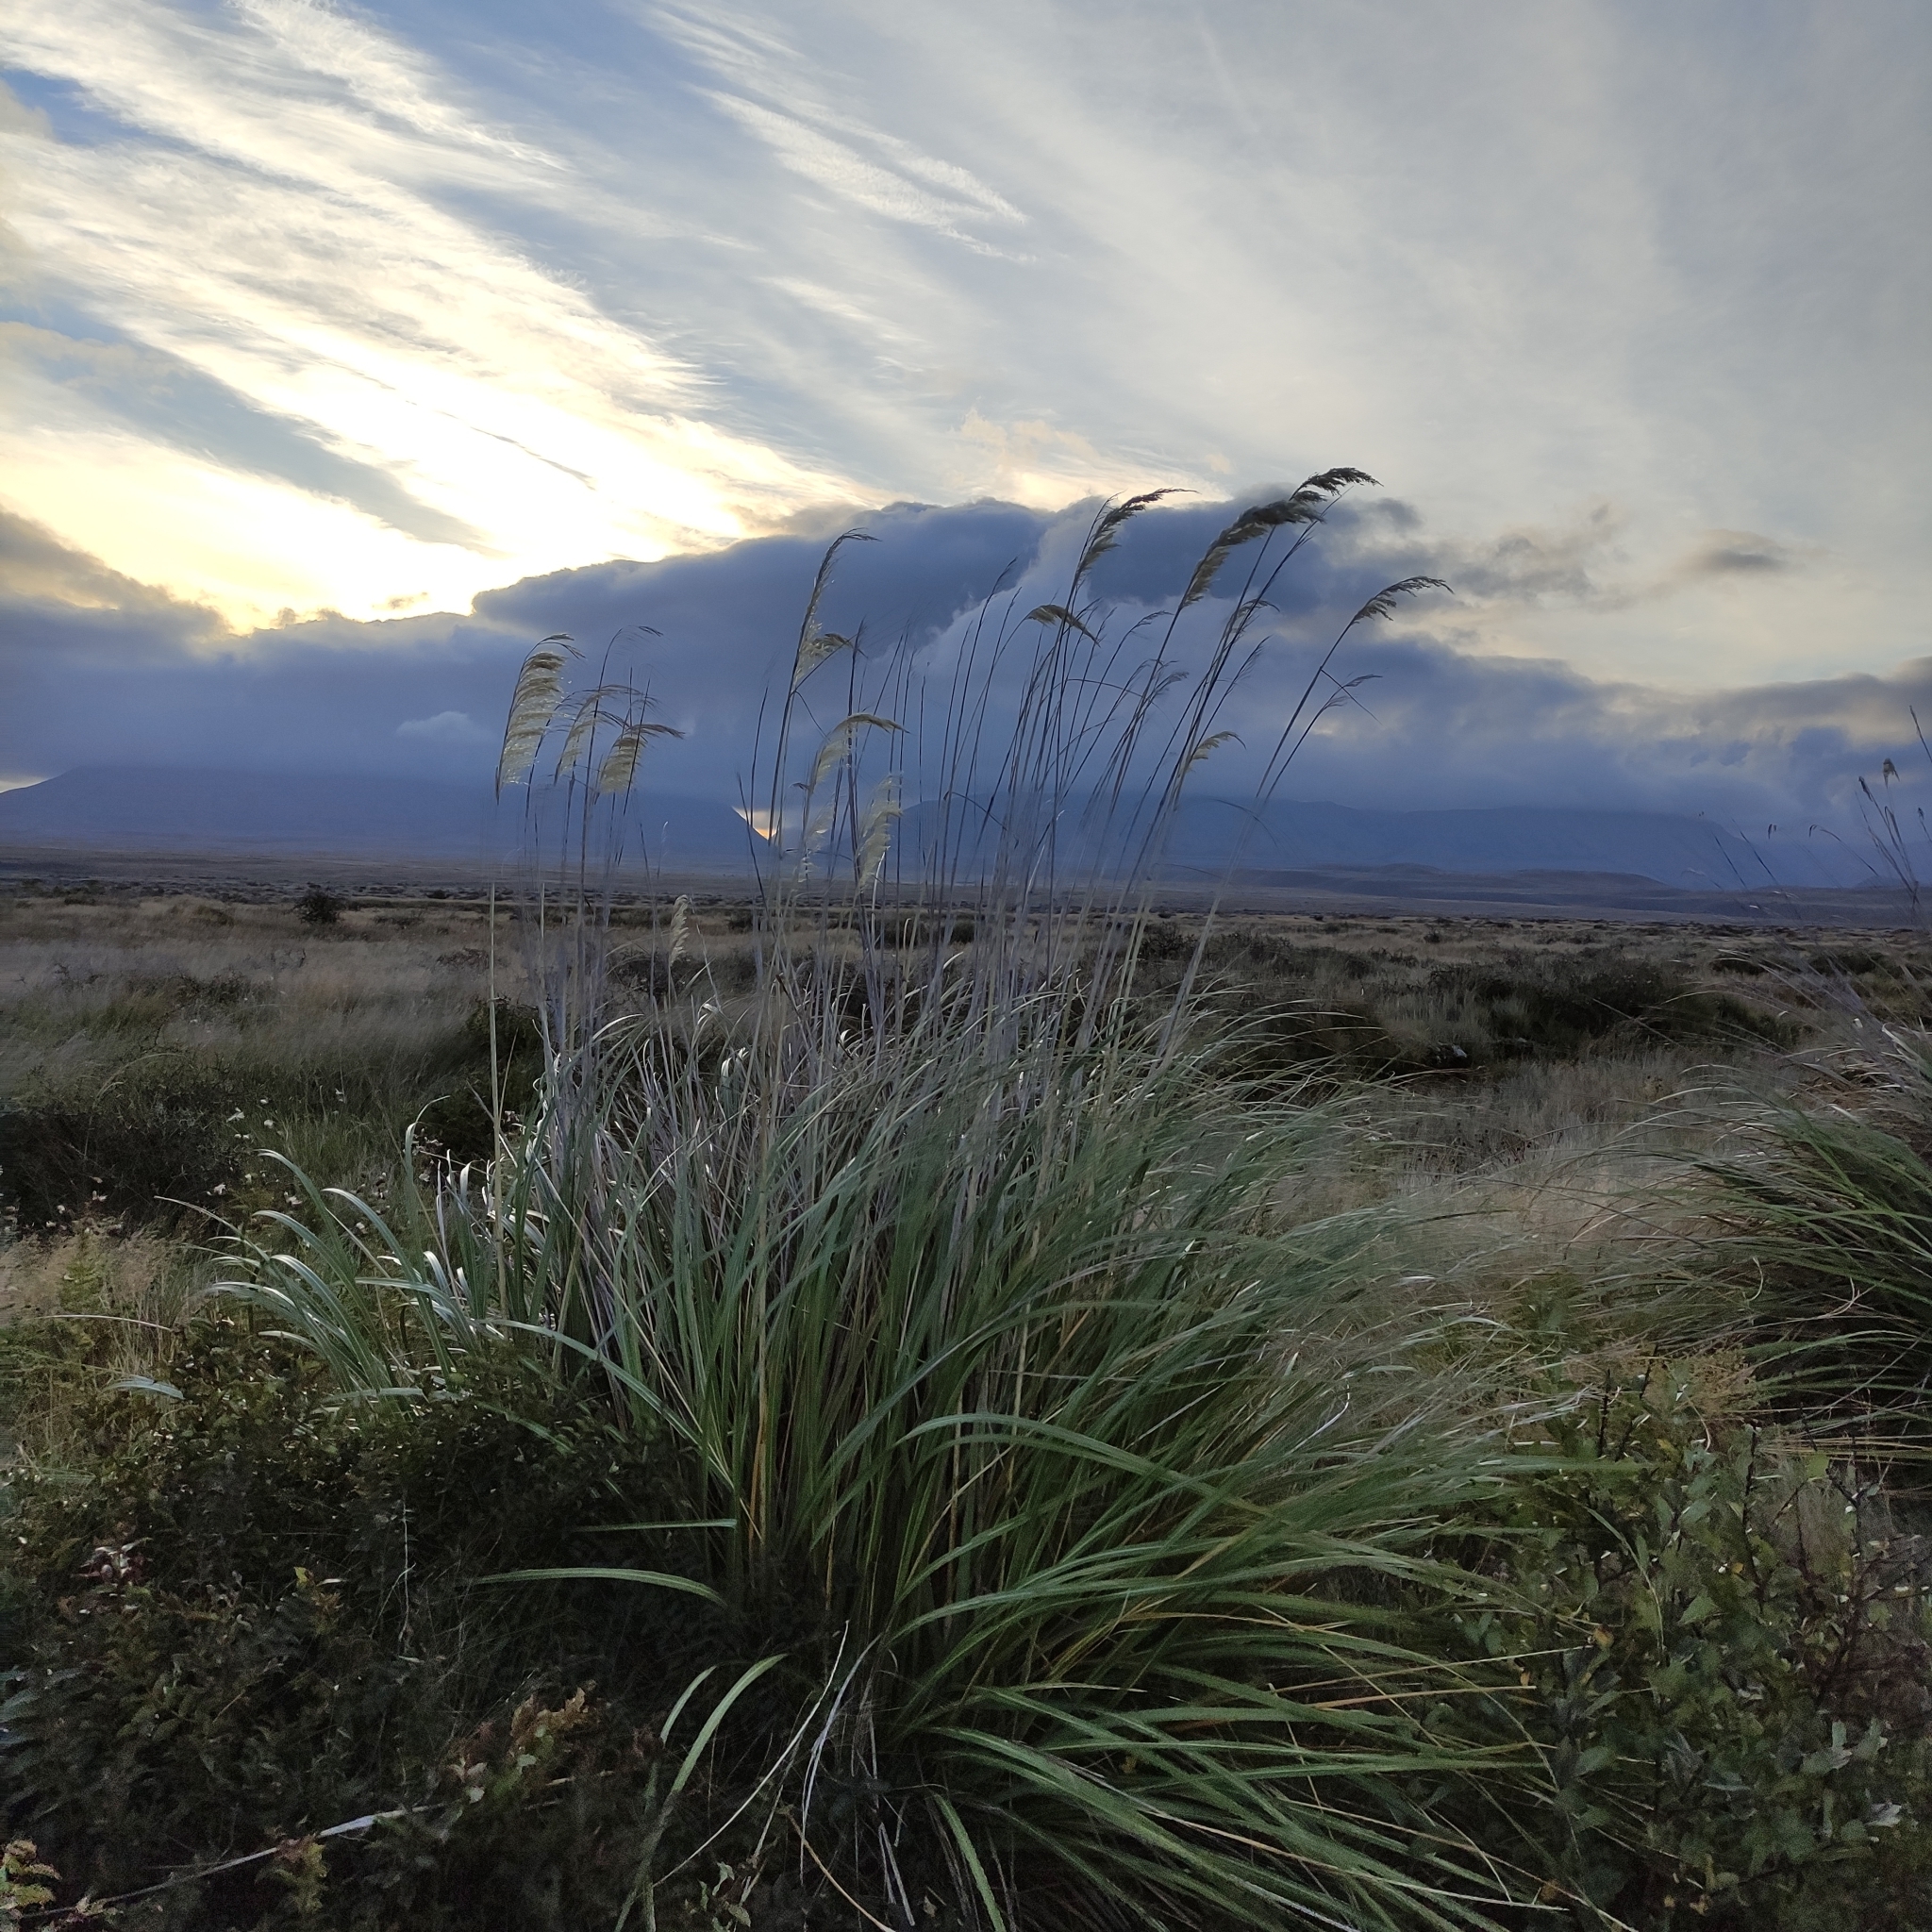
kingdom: Plantae
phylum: Tracheophyta
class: Liliopsida
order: Poales
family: Poaceae
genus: Austroderia
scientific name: Austroderia richardii
